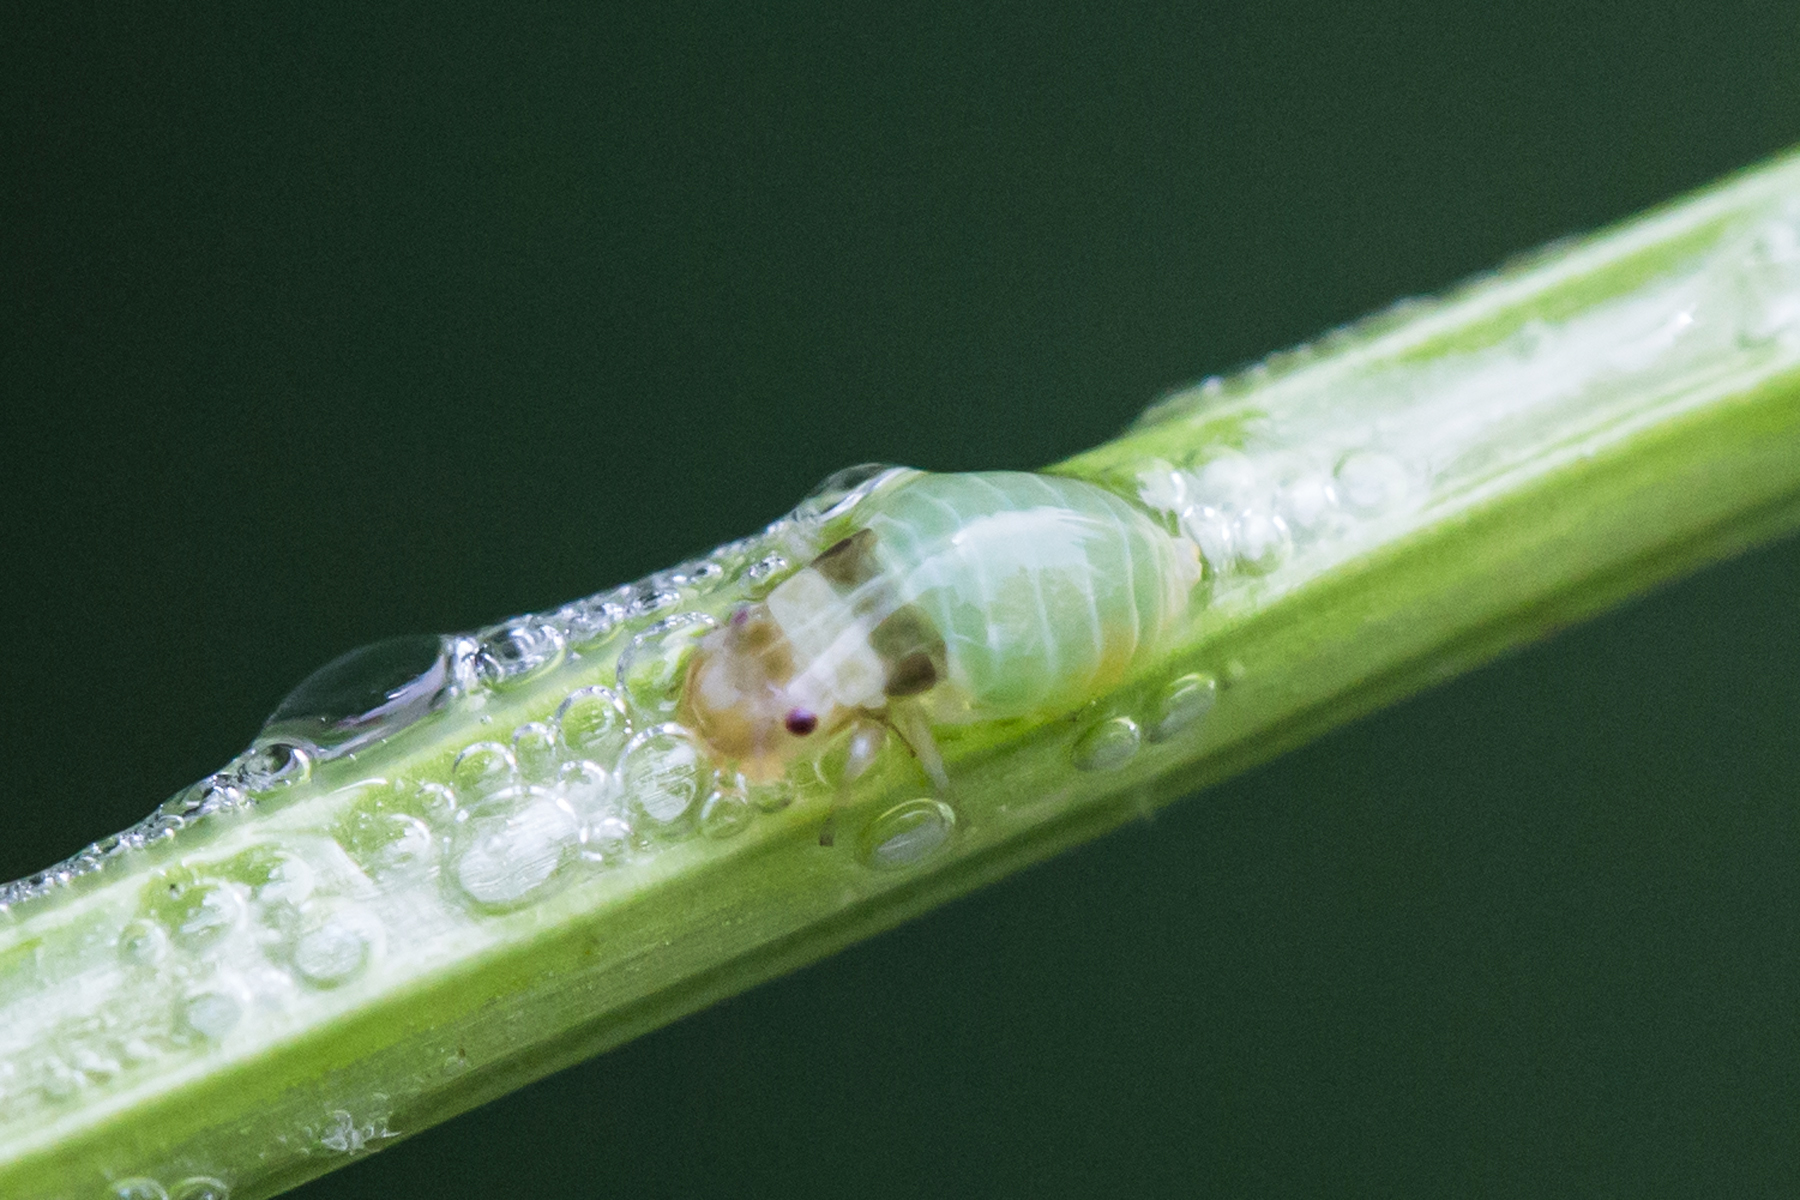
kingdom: Animalia
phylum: Arthropoda
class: Insecta
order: Hemiptera
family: Aphrophoridae
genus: Lepyronia
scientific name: Lepyronia quadrangularis
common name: Diamond-backed spittlebug
